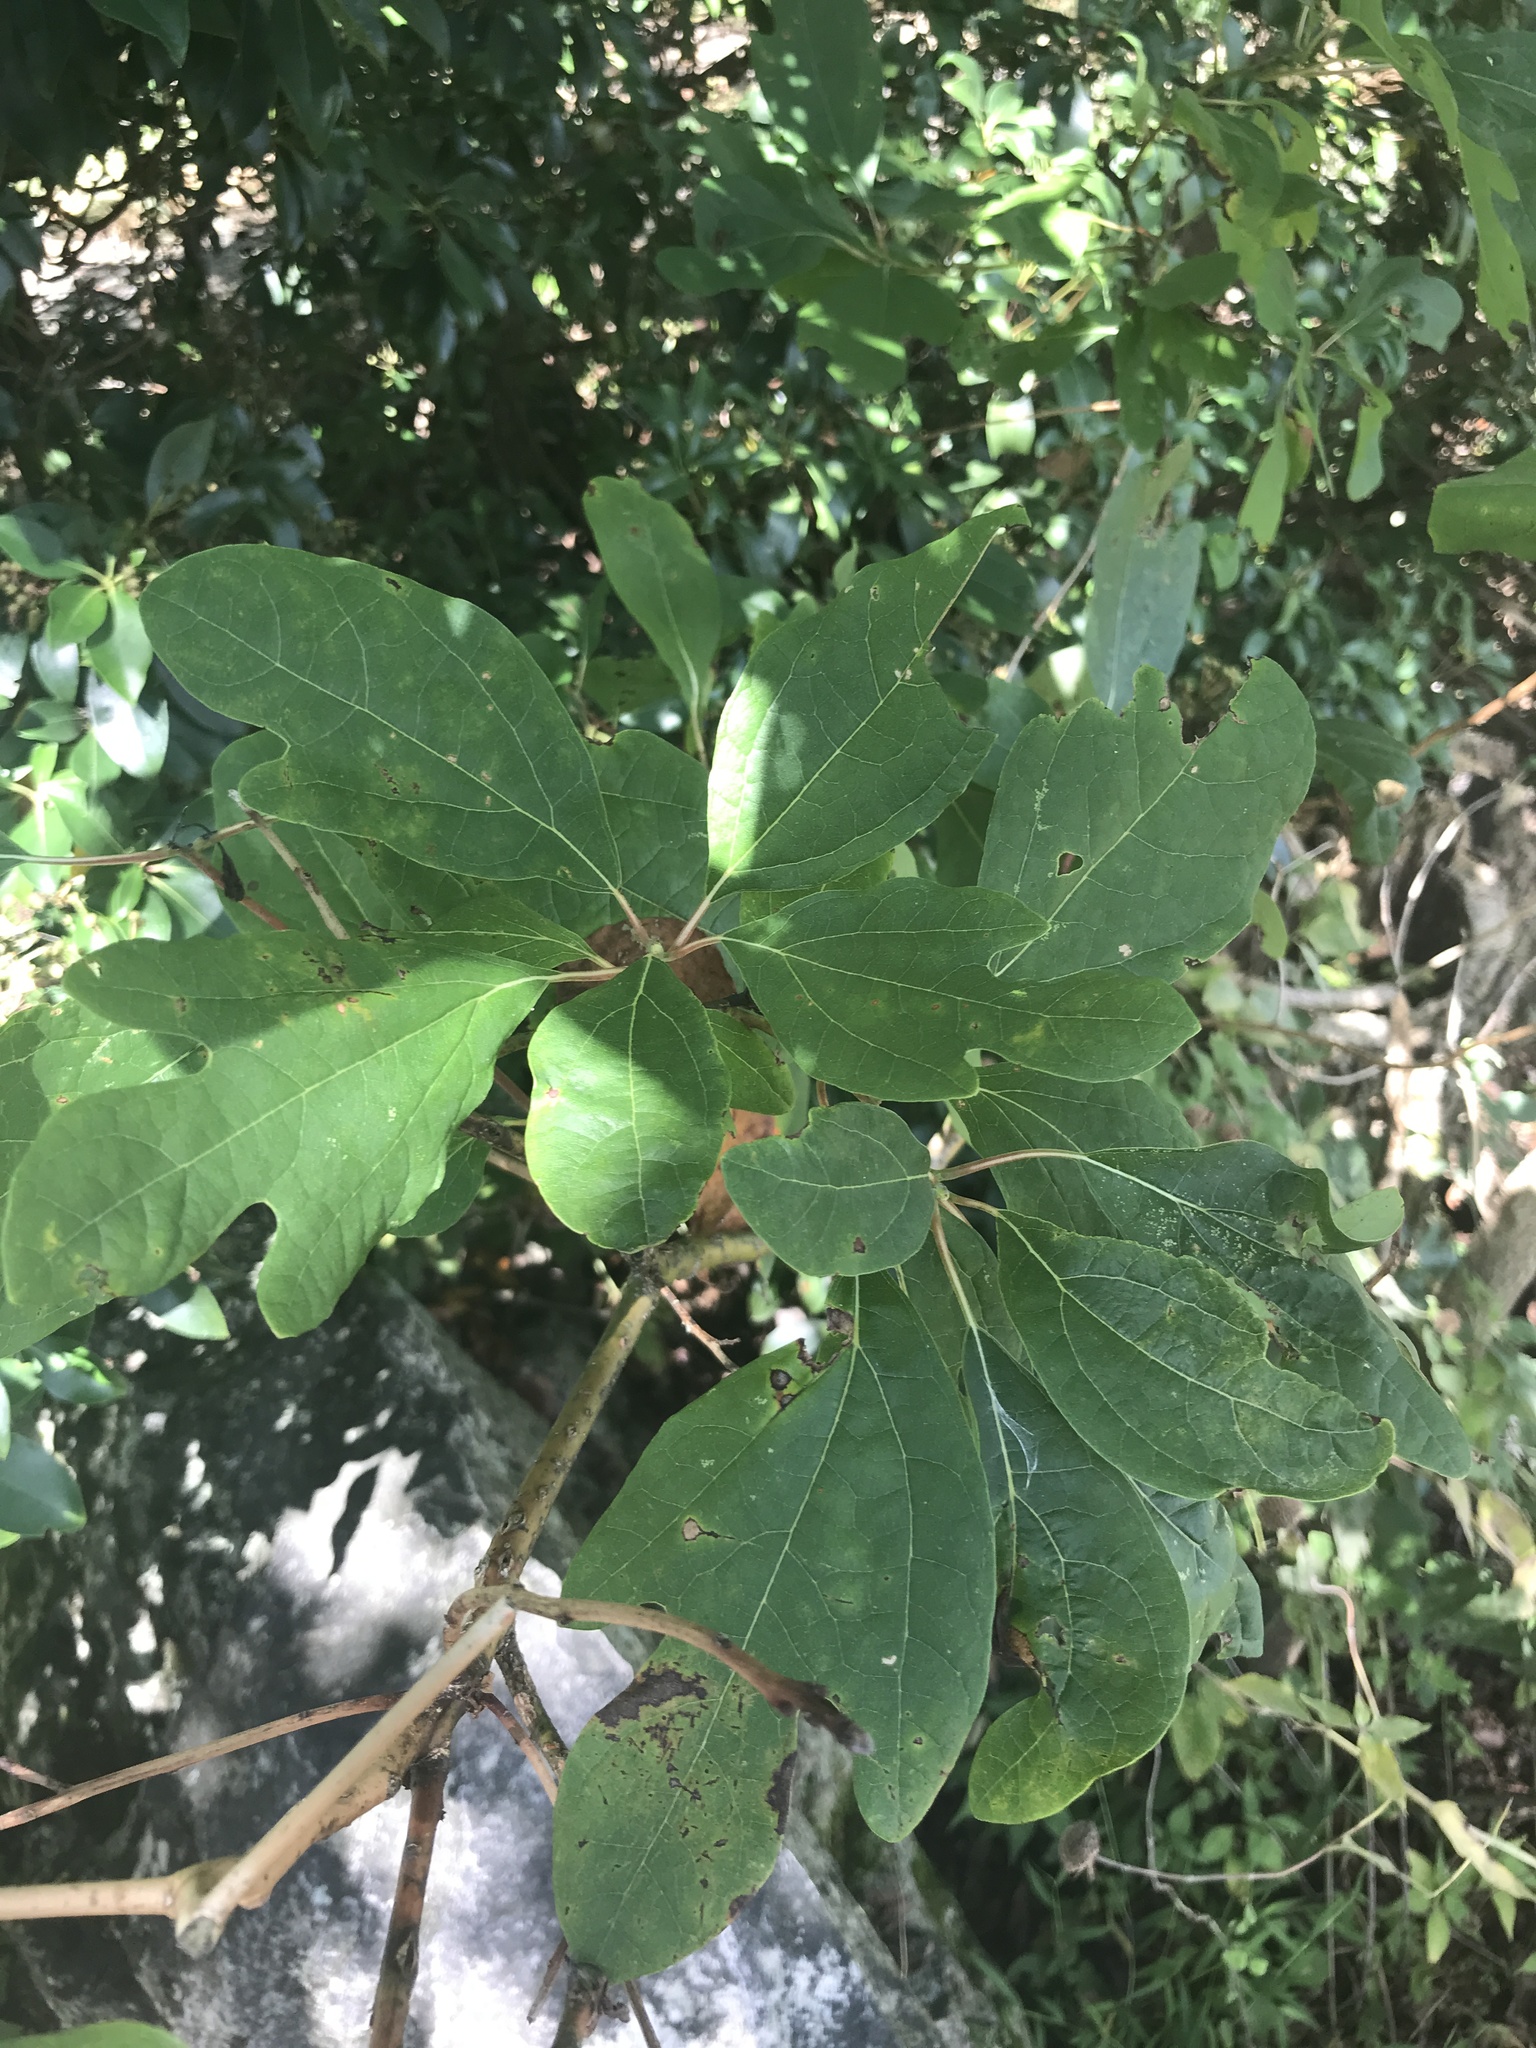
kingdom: Plantae
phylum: Tracheophyta
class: Magnoliopsida
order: Laurales
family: Lauraceae
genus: Sassafras
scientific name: Sassafras albidum
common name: Sassafras
